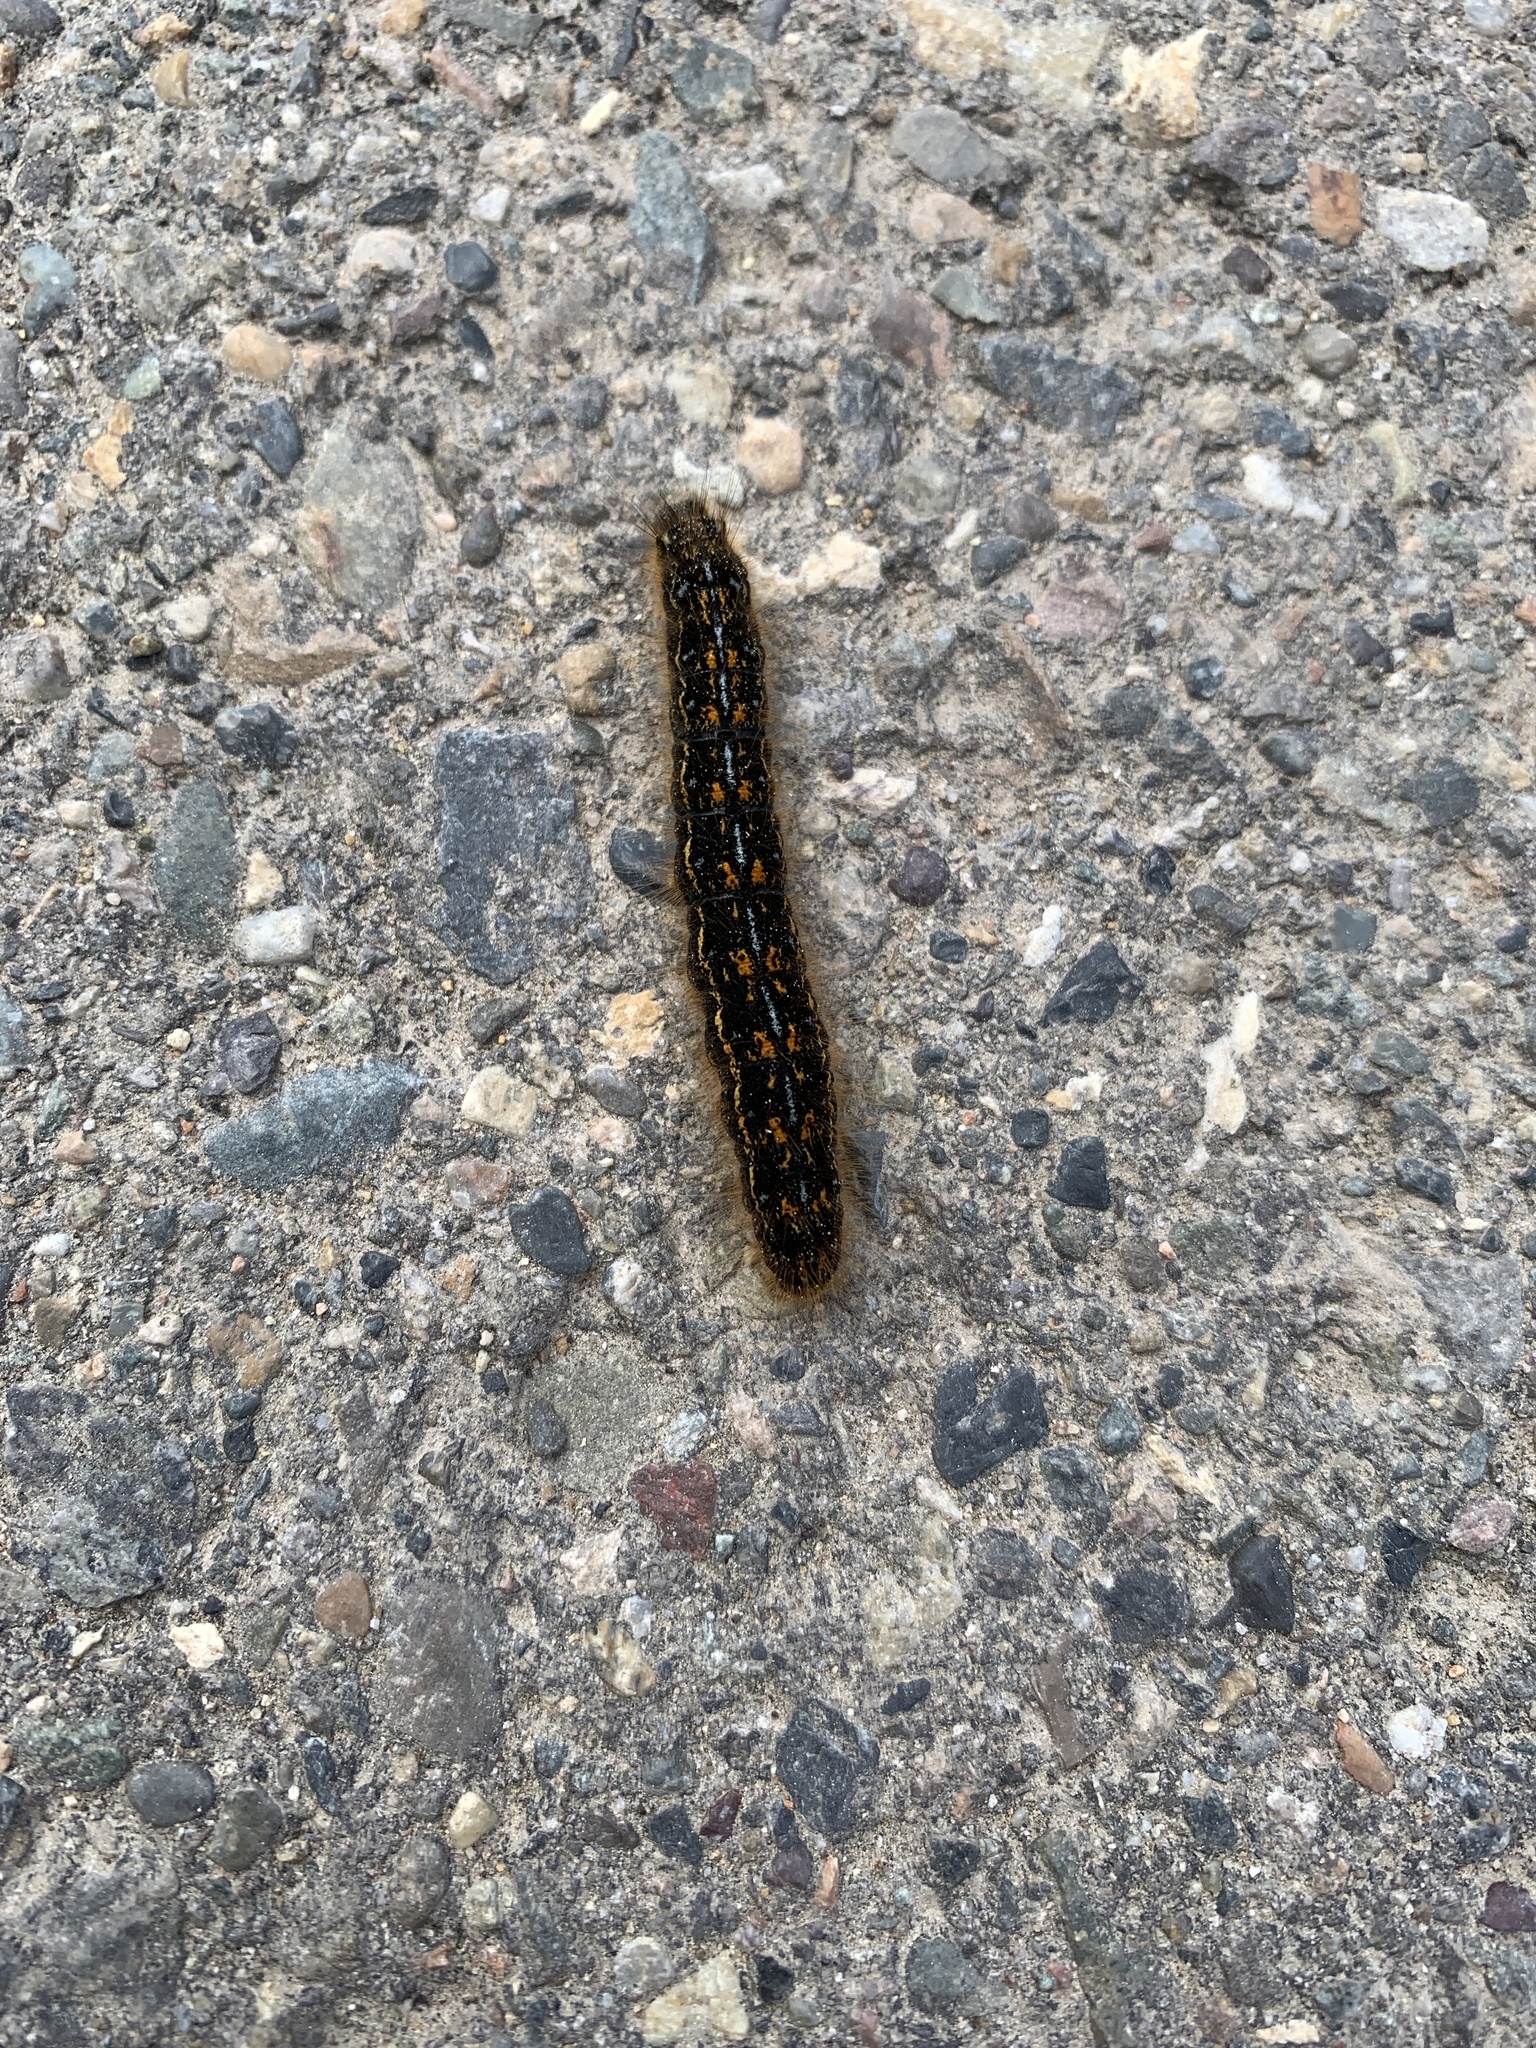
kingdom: Animalia
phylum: Arthropoda
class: Insecta
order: Lepidoptera
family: Lasiocampidae
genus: Malacosoma
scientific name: Malacosoma californica
